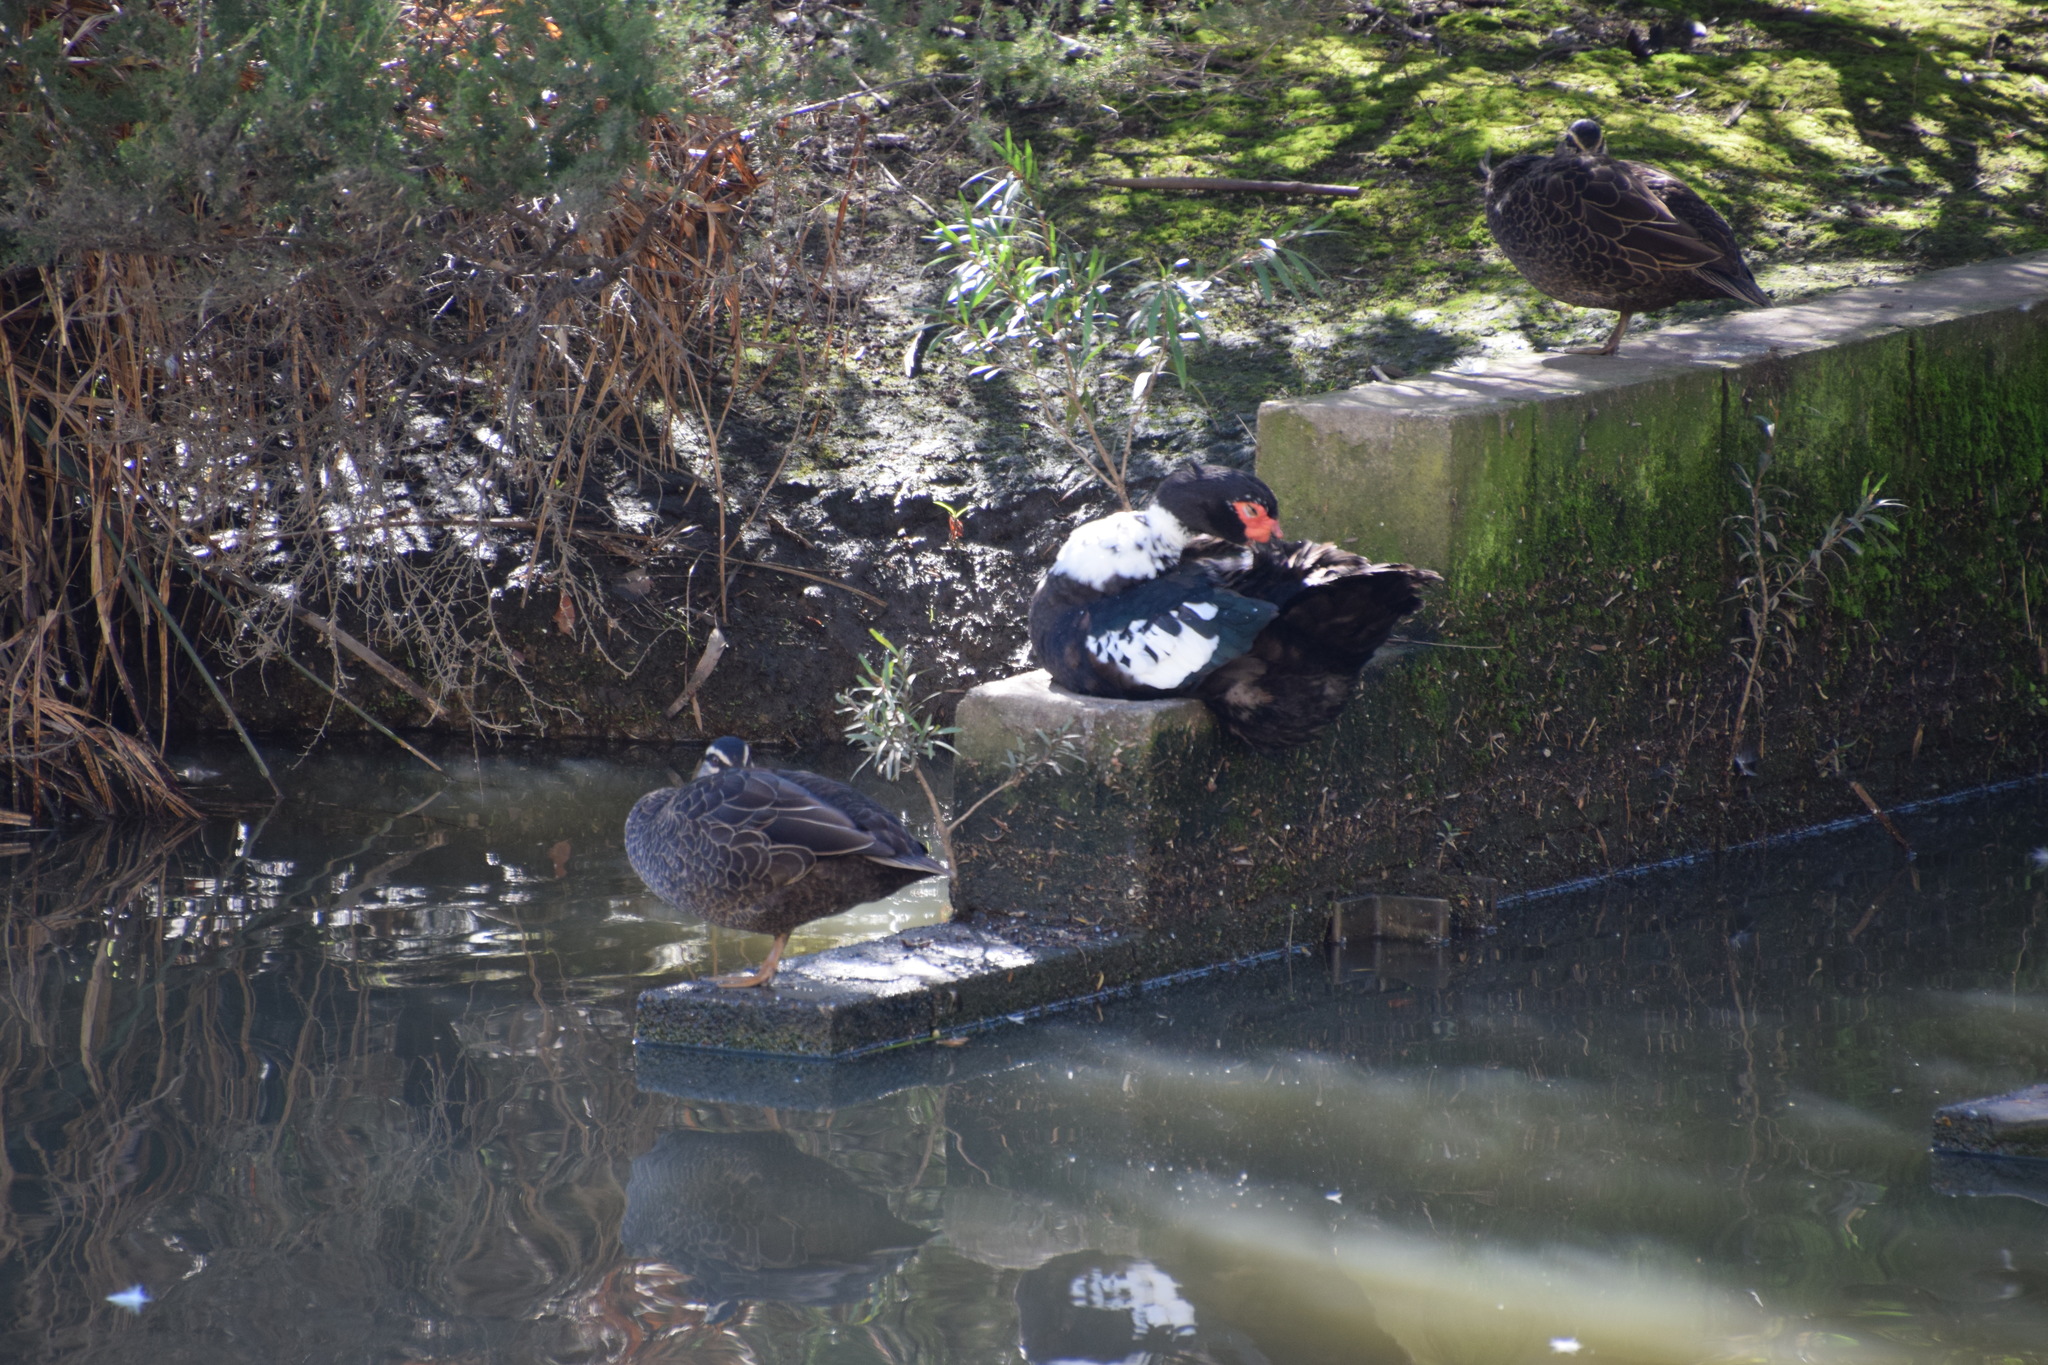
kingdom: Animalia
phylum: Chordata
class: Aves
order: Anseriformes
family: Anatidae
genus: Anas
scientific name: Anas
